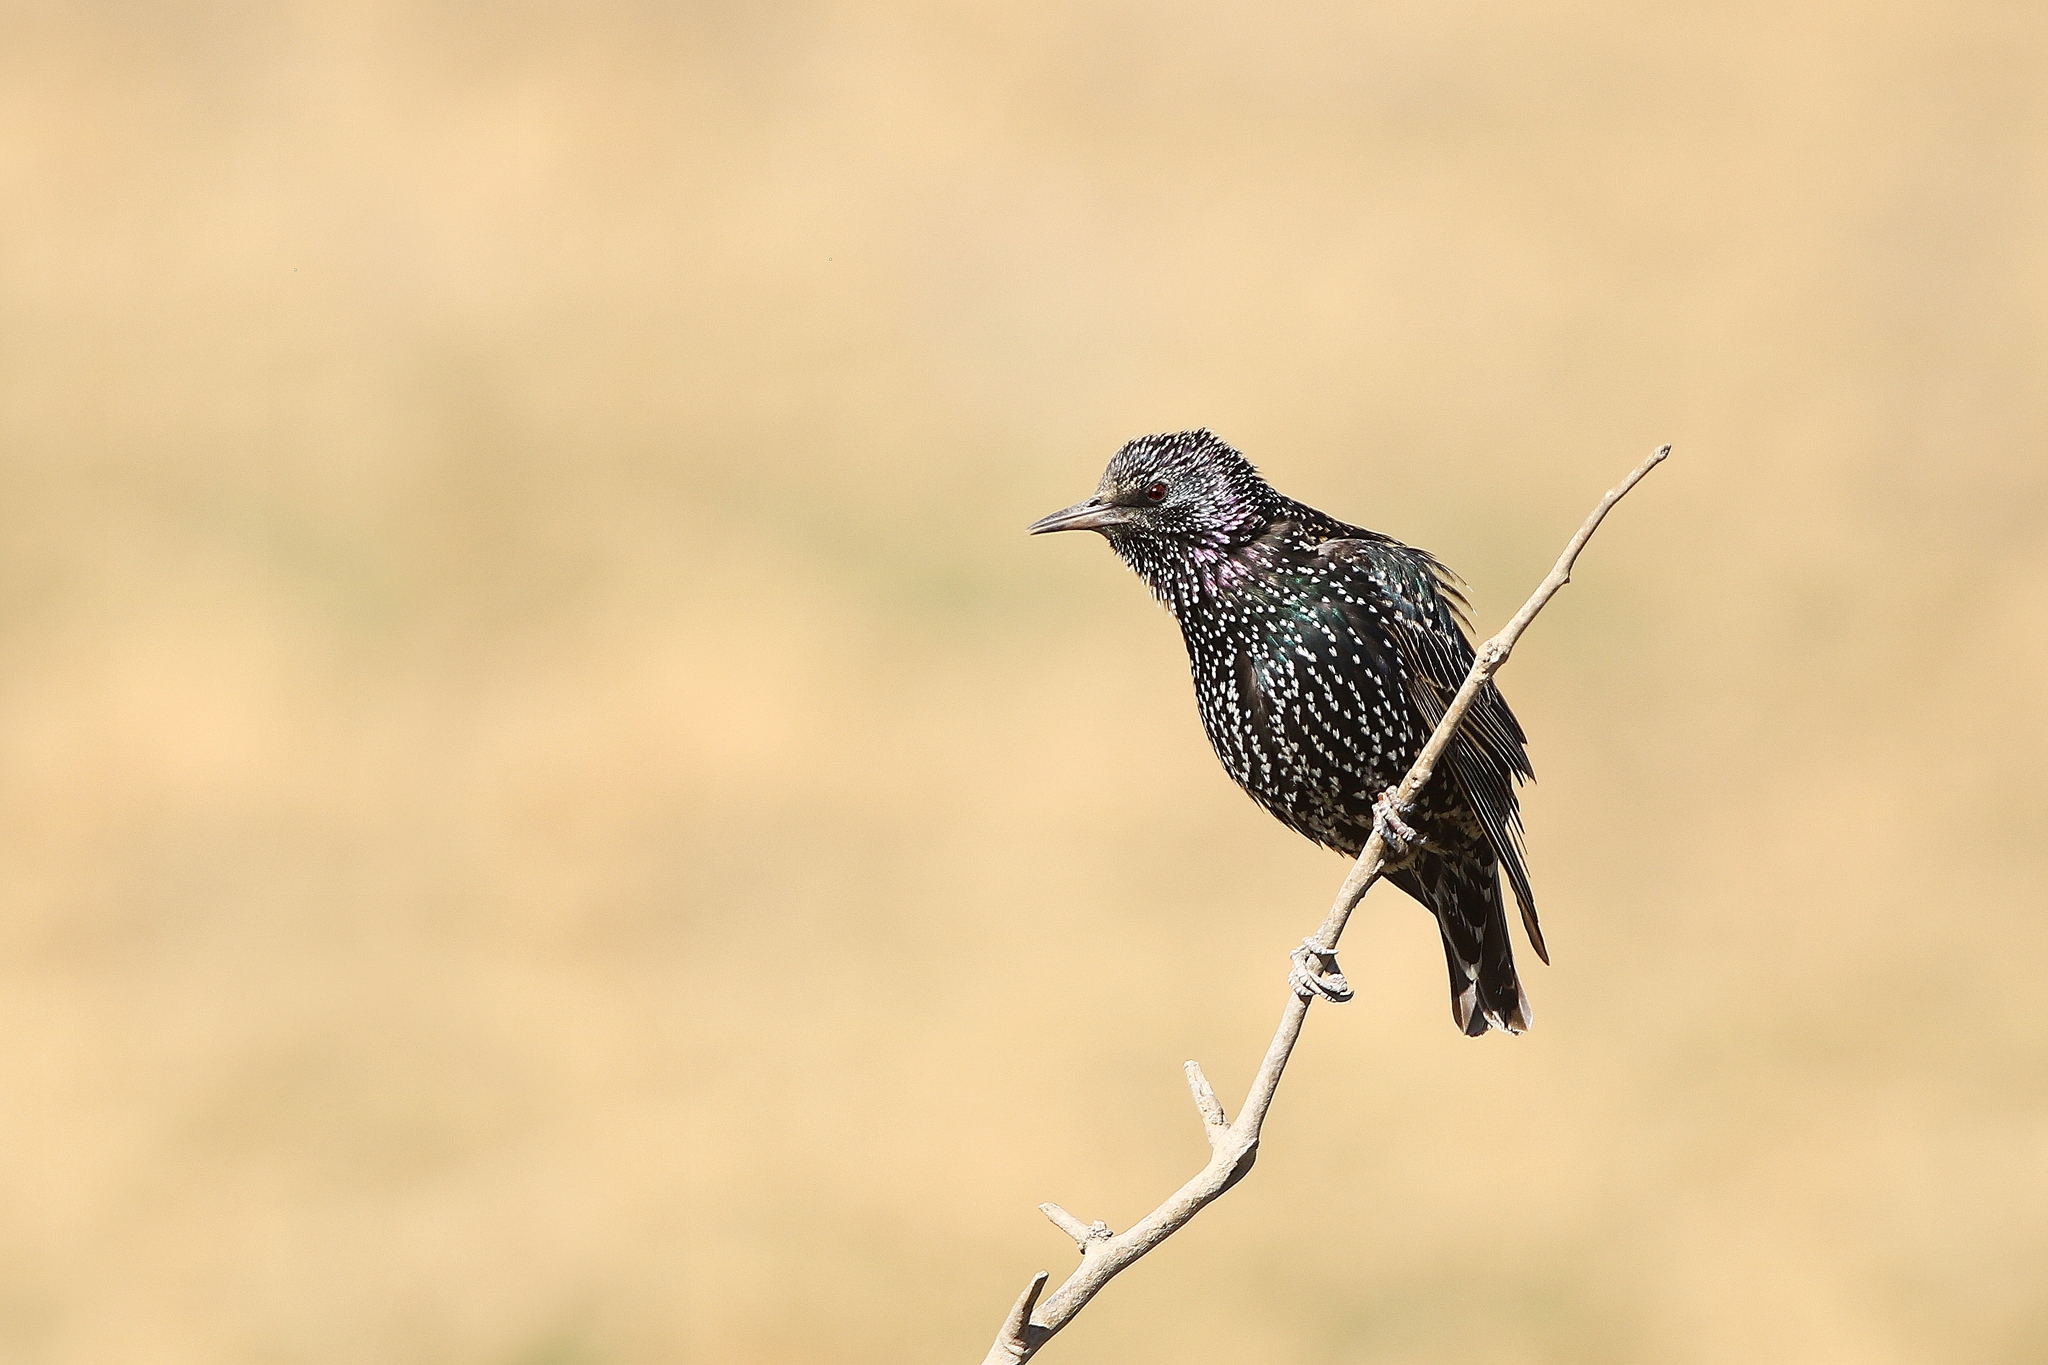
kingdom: Animalia
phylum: Chordata
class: Aves
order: Passeriformes
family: Sturnidae
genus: Sturnus
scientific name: Sturnus vulgaris
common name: Common starling
